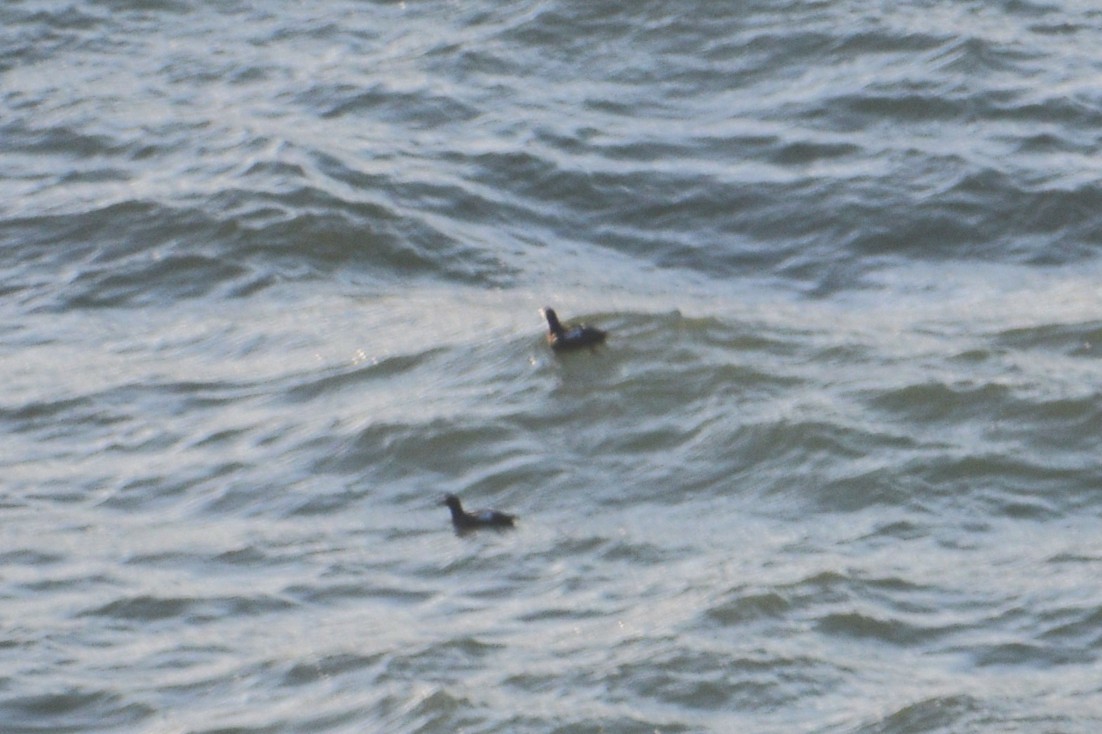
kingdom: Animalia
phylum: Chordata
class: Aves
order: Charadriiformes
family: Alcidae
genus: Cepphus
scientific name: Cepphus columba
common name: Pigeon guillemot
